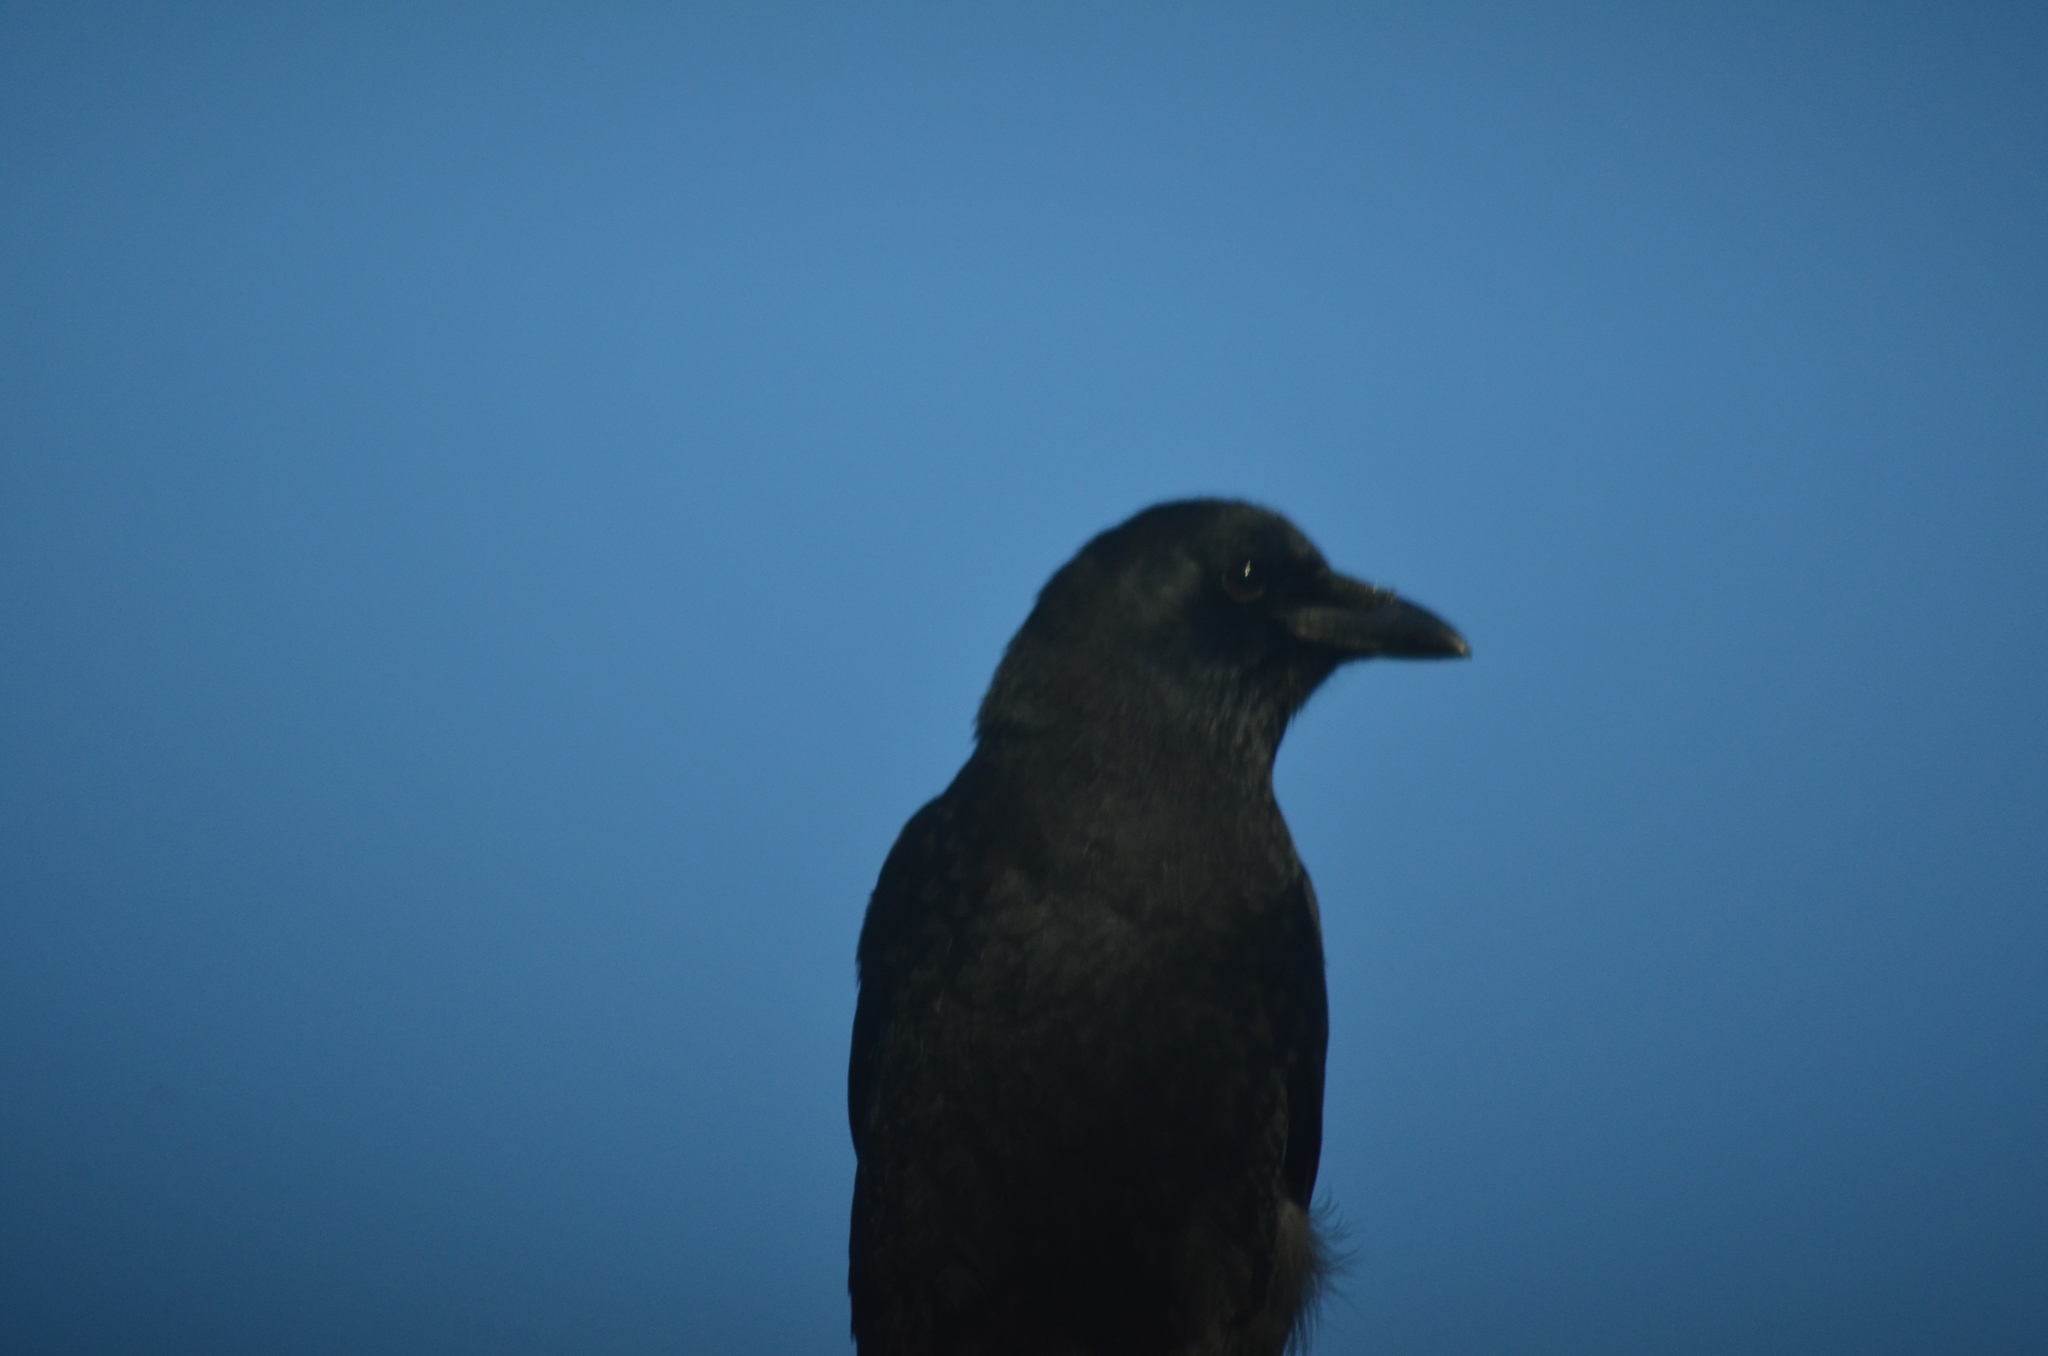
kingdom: Animalia
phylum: Chordata
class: Aves
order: Passeriformes
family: Corvidae
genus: Corvus
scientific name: Corvus brachyrhynchos
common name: American crow
